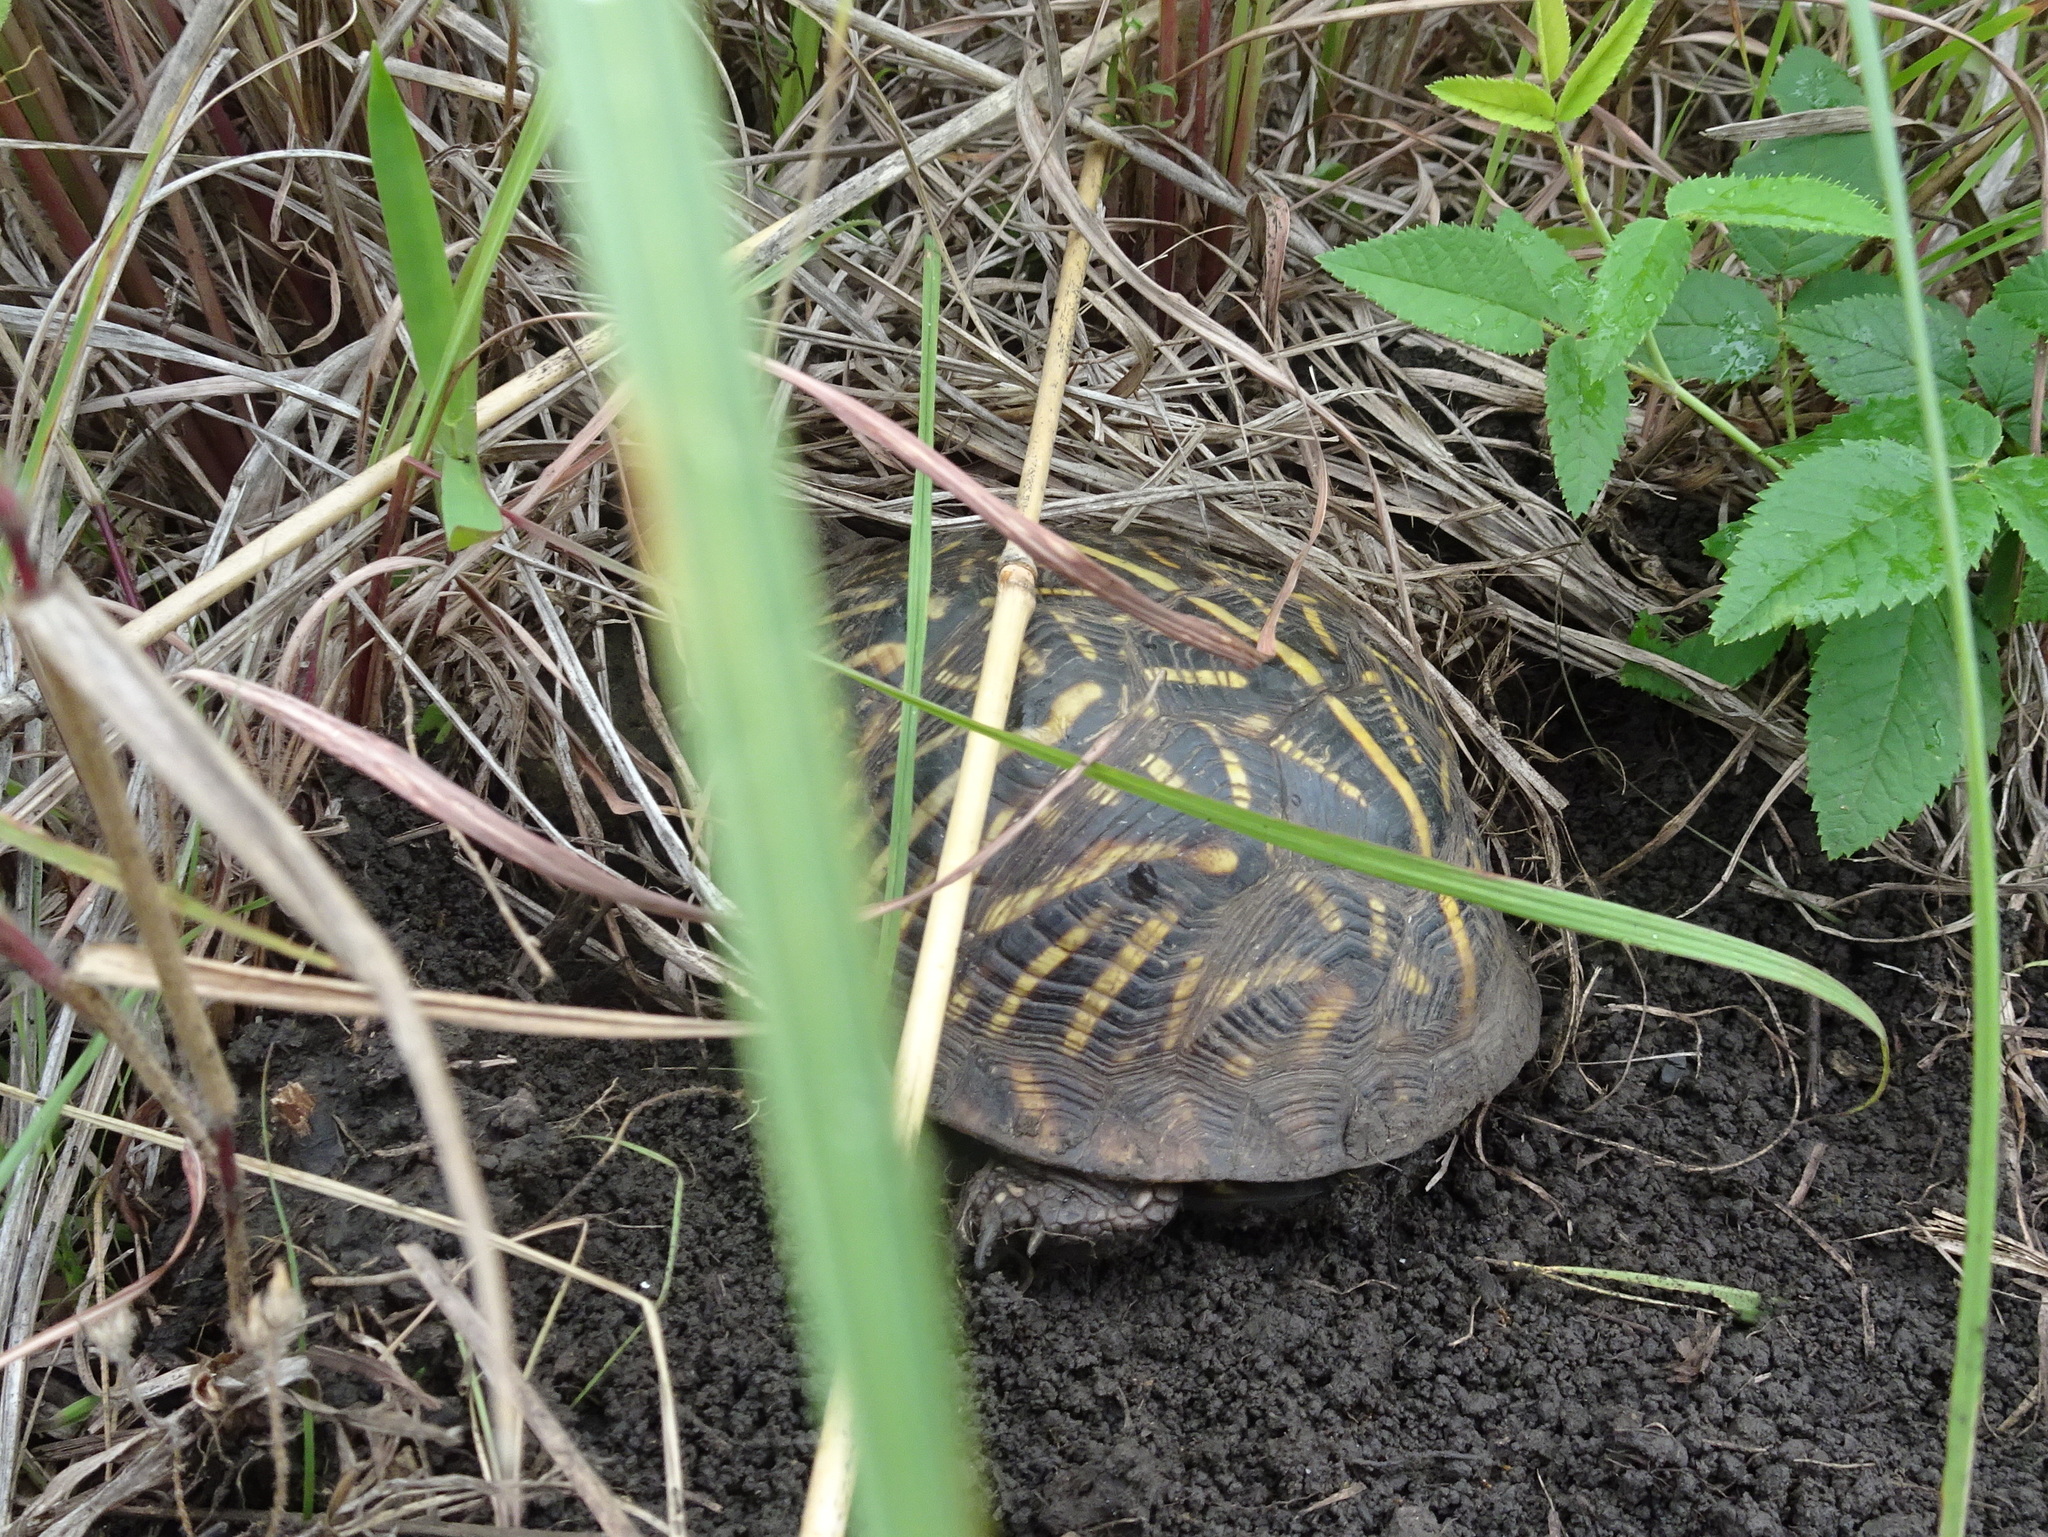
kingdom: Animalia
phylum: Chordata
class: Testudines
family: Emydidae
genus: Terrapene
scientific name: Terrapene ornata
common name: Western box turtle
